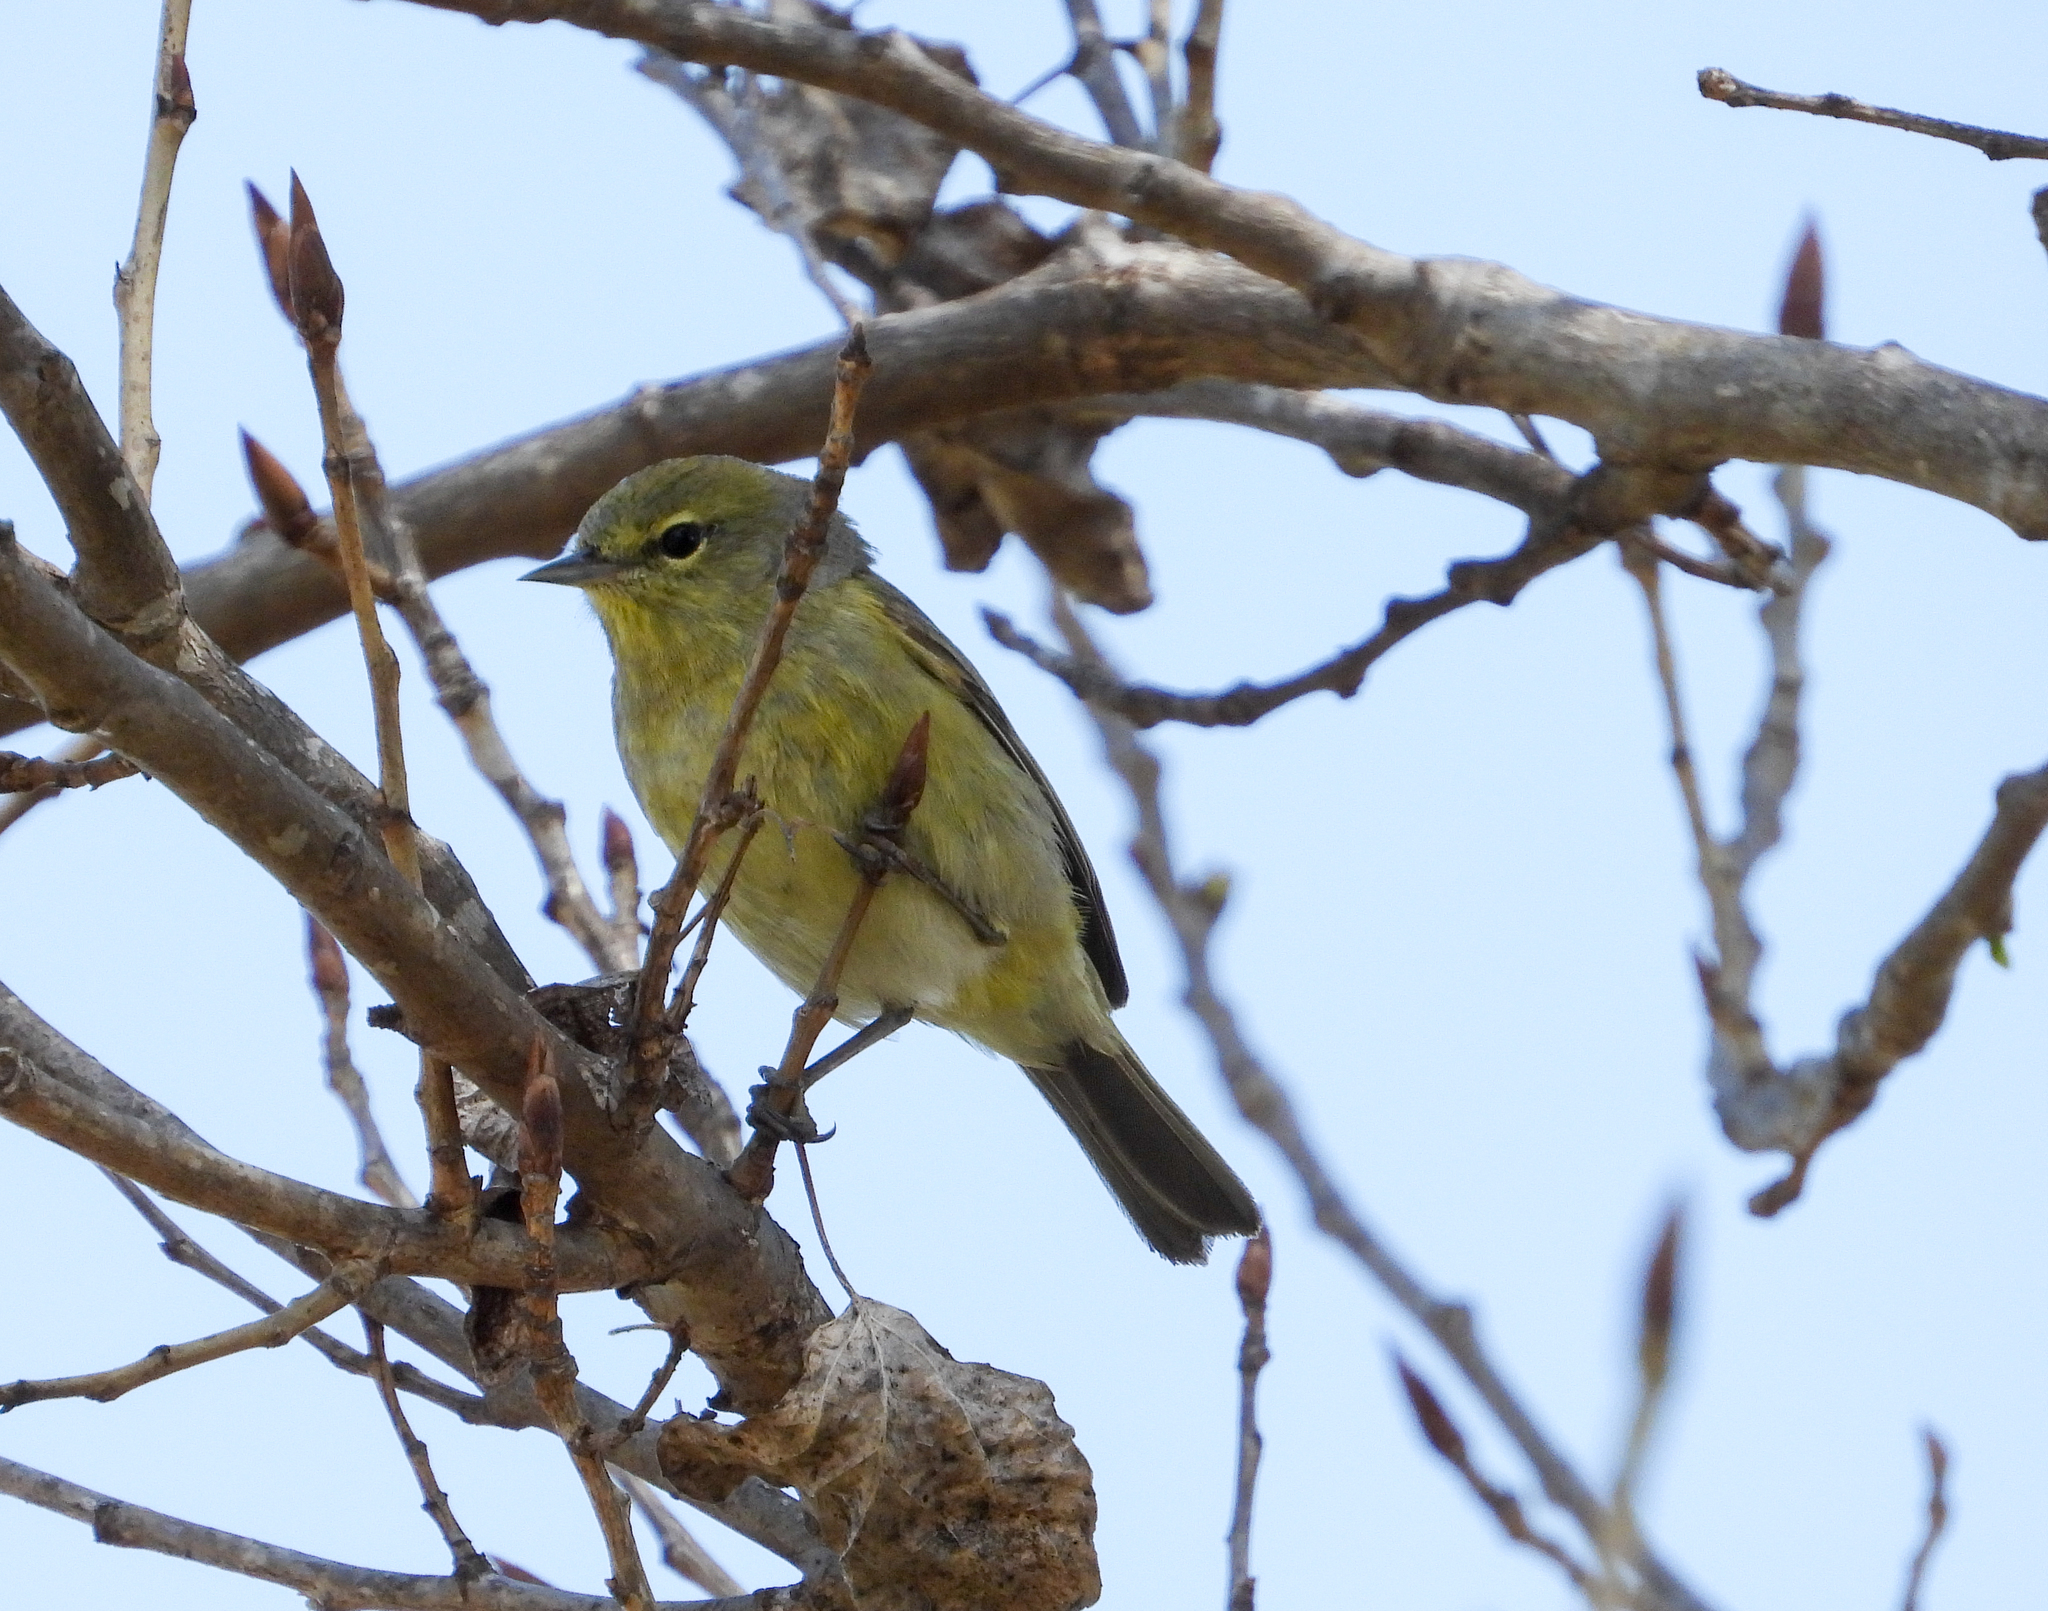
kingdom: Animalia
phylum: Chordata
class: Aves
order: Passeriformes
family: Parulidae
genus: Leiothlypis
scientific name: Leiothlypis celata
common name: Orange-crowned warbler
